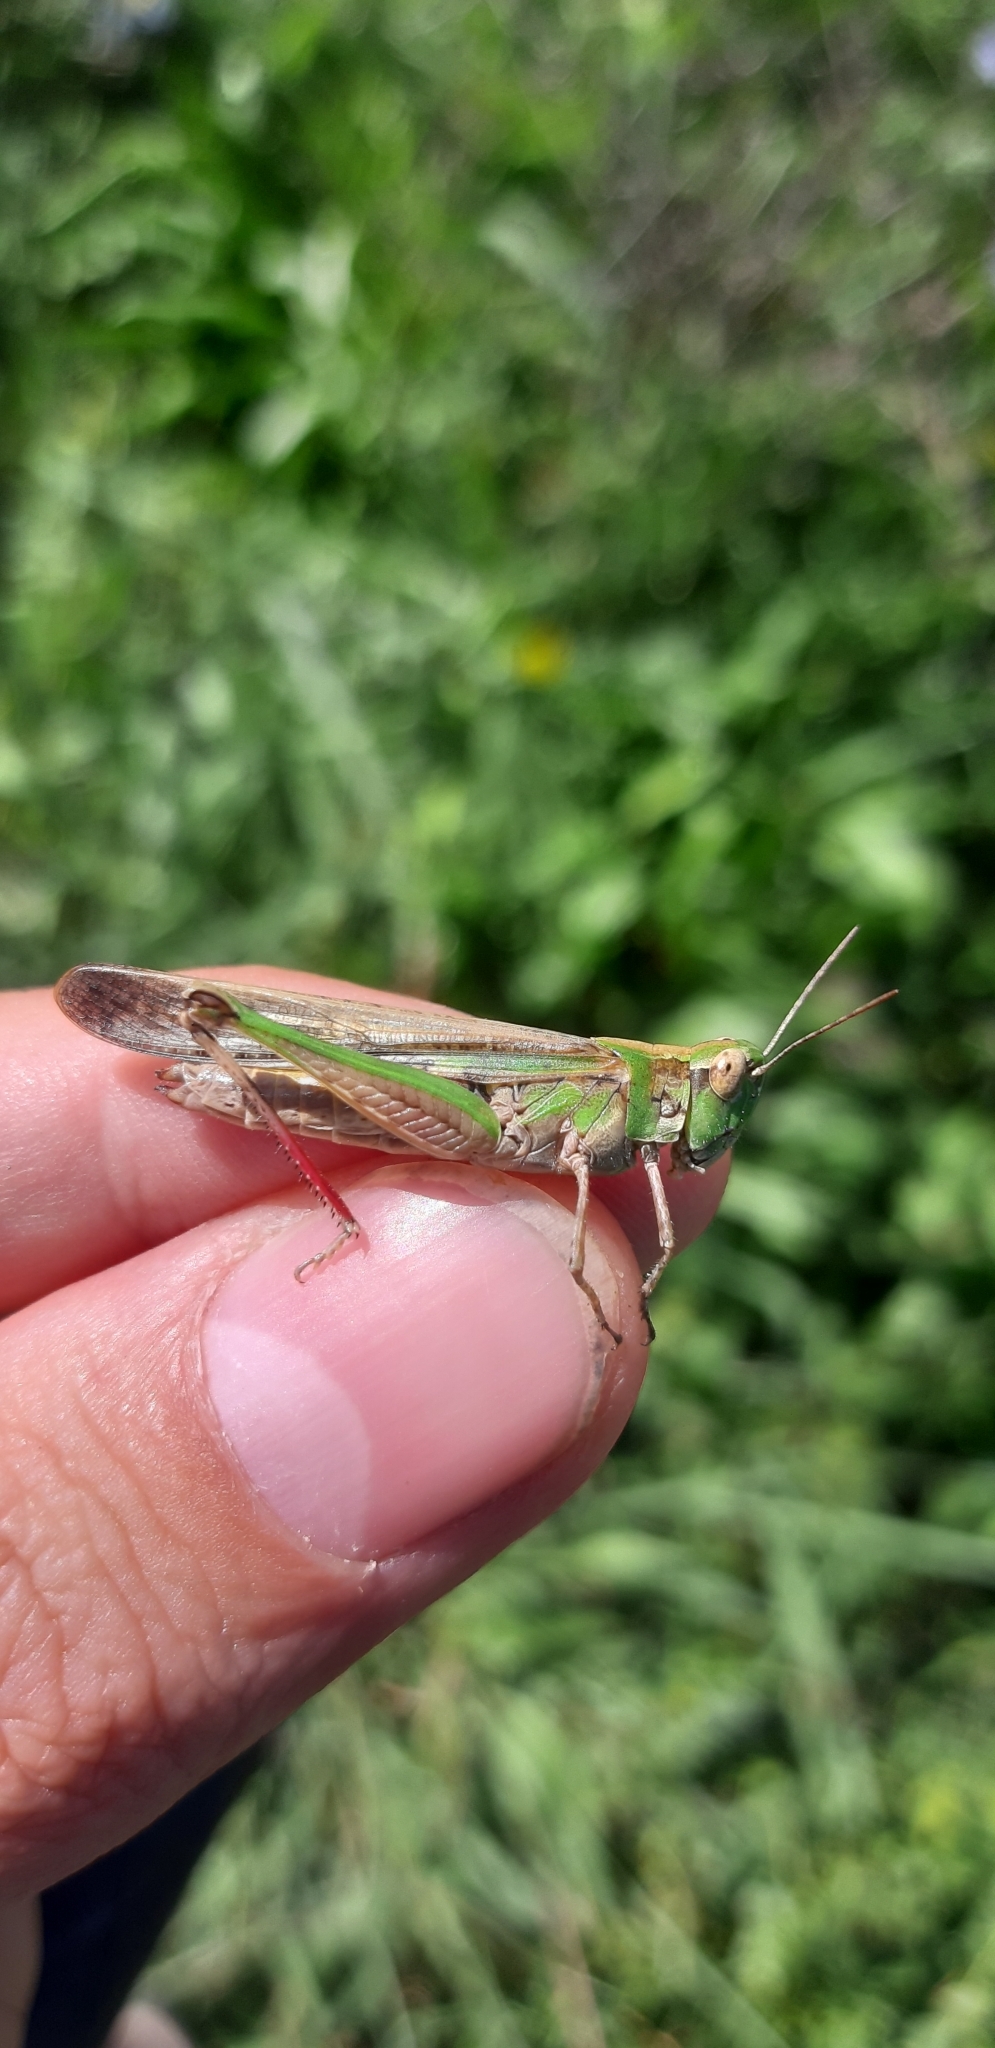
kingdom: Animalia
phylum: Arthropoda
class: Insecta
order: Orthoptera
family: Acrididae
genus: Aiolopus
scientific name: Aiolopus thalassinus
